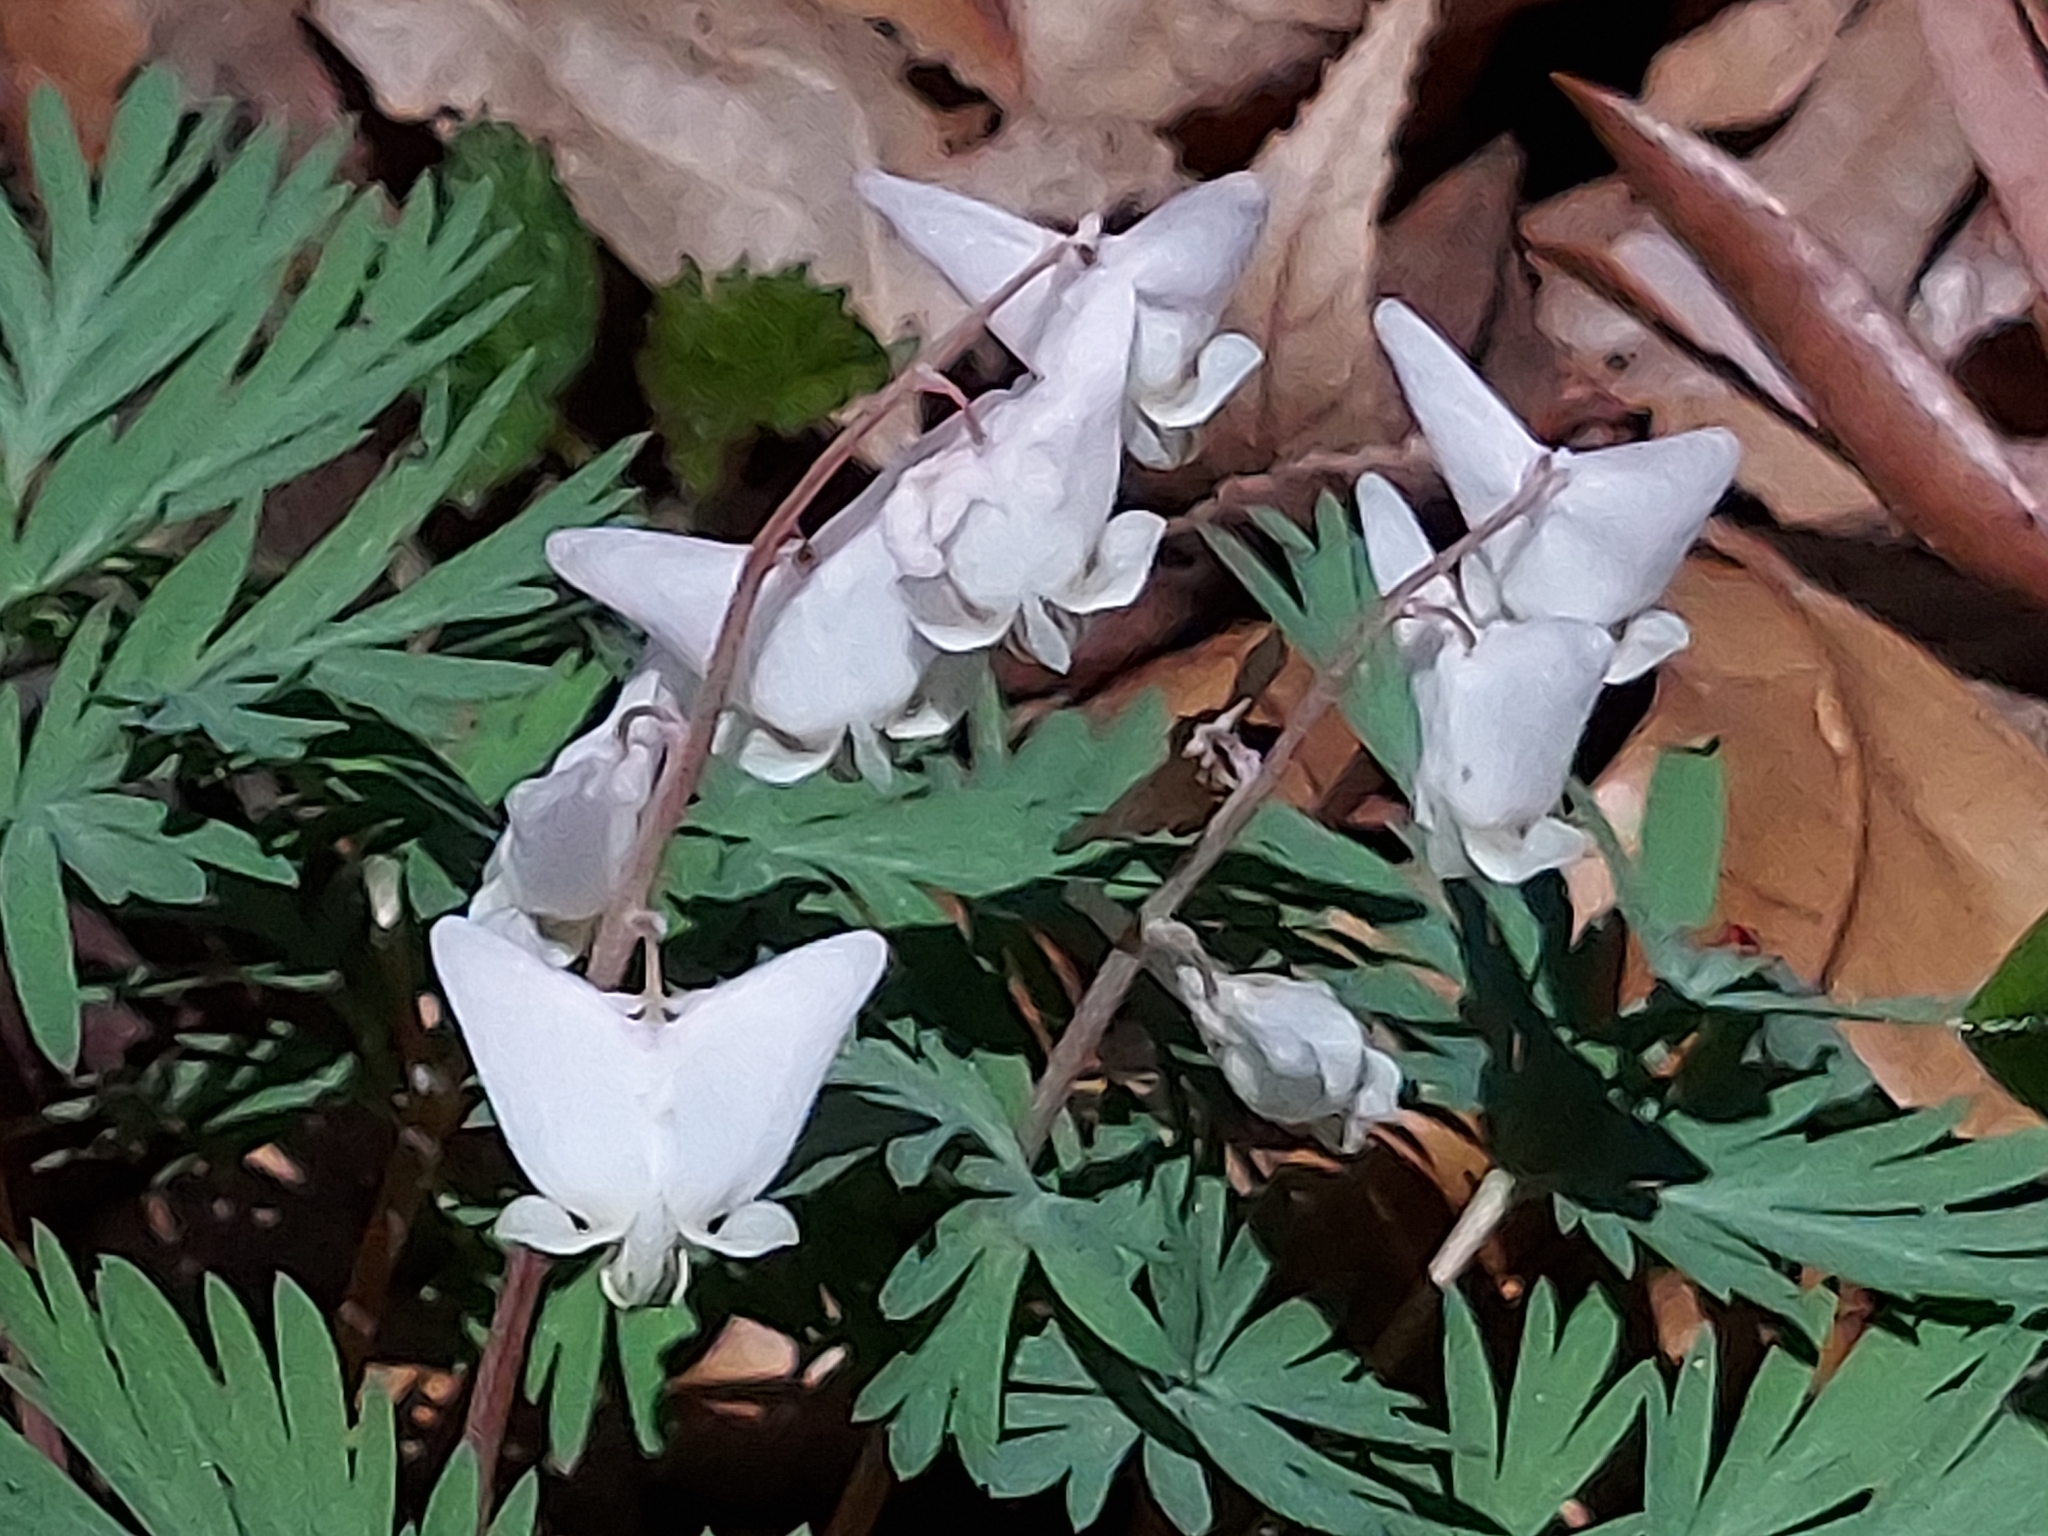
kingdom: Plantae
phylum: Tracheophyta
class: Magnoliopsida
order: Ranunculales
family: Papaveraceae
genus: Dicentra
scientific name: Dicentra cucullaria
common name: Dutchman's breeches
